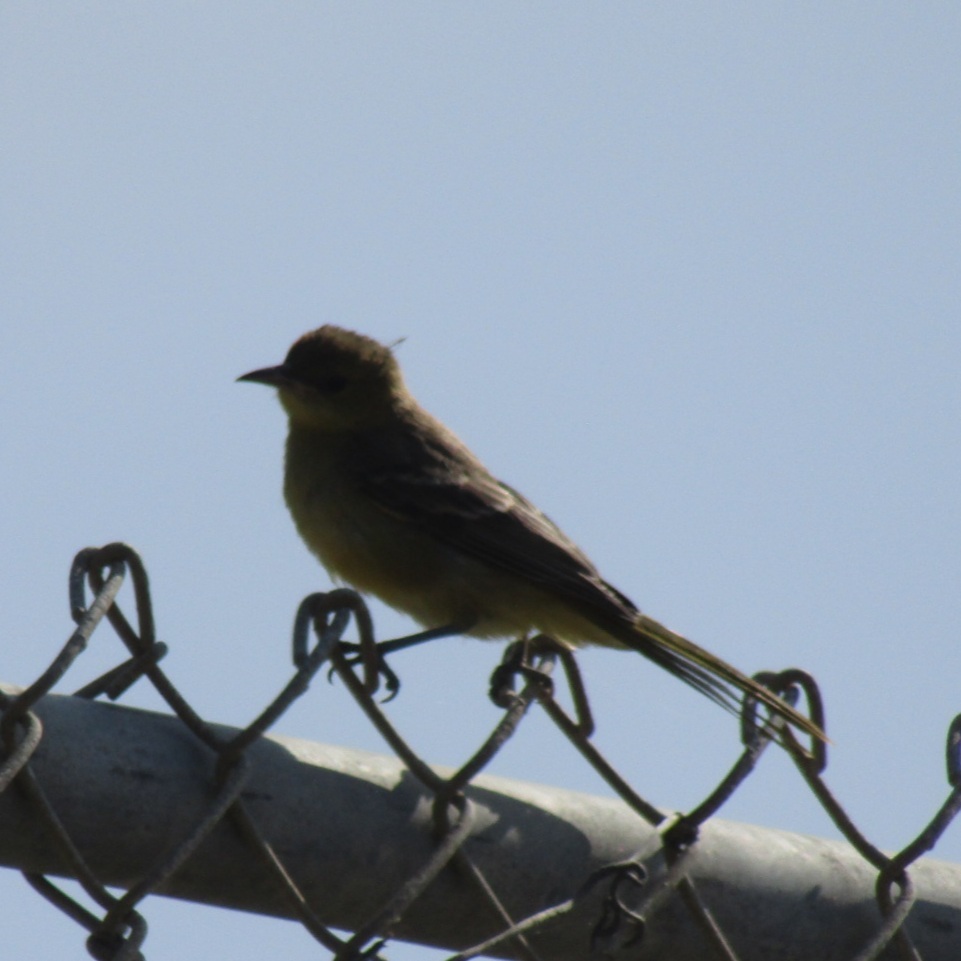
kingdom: Animalia
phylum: Chordata
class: Aves
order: Passeriformes
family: Icteridae
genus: Icterus
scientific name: Icterus cucullatus
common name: Hooded oriole
